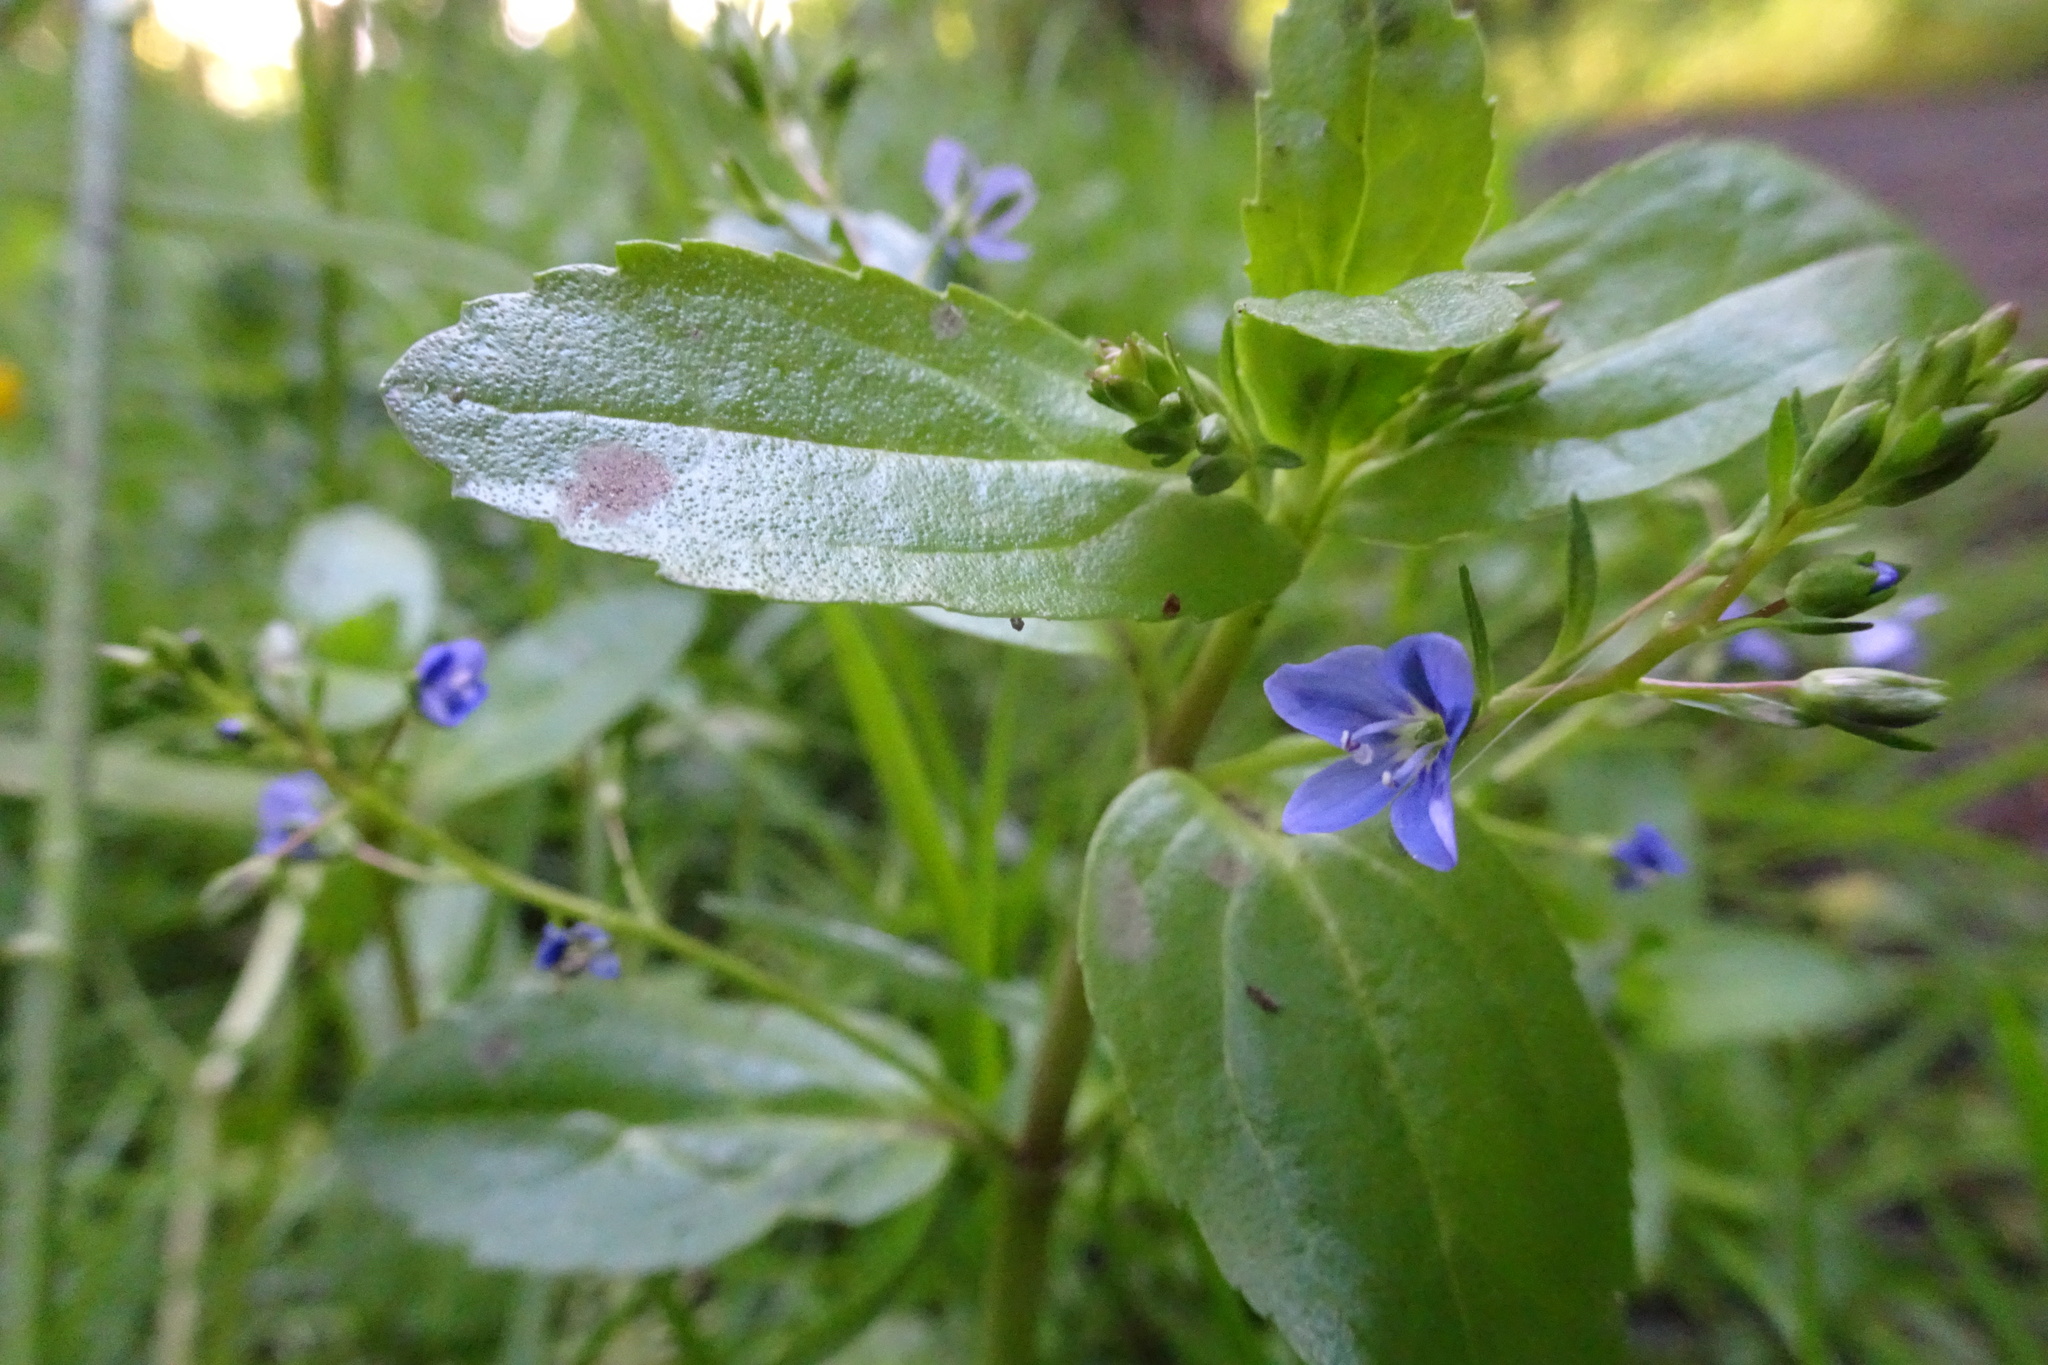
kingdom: Plantae
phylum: Tracheophyta
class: Magnoliopsida
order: Lamiales
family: Plantaginaceae
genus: Veronica
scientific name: Veronica beccabunga
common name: Brooklime
